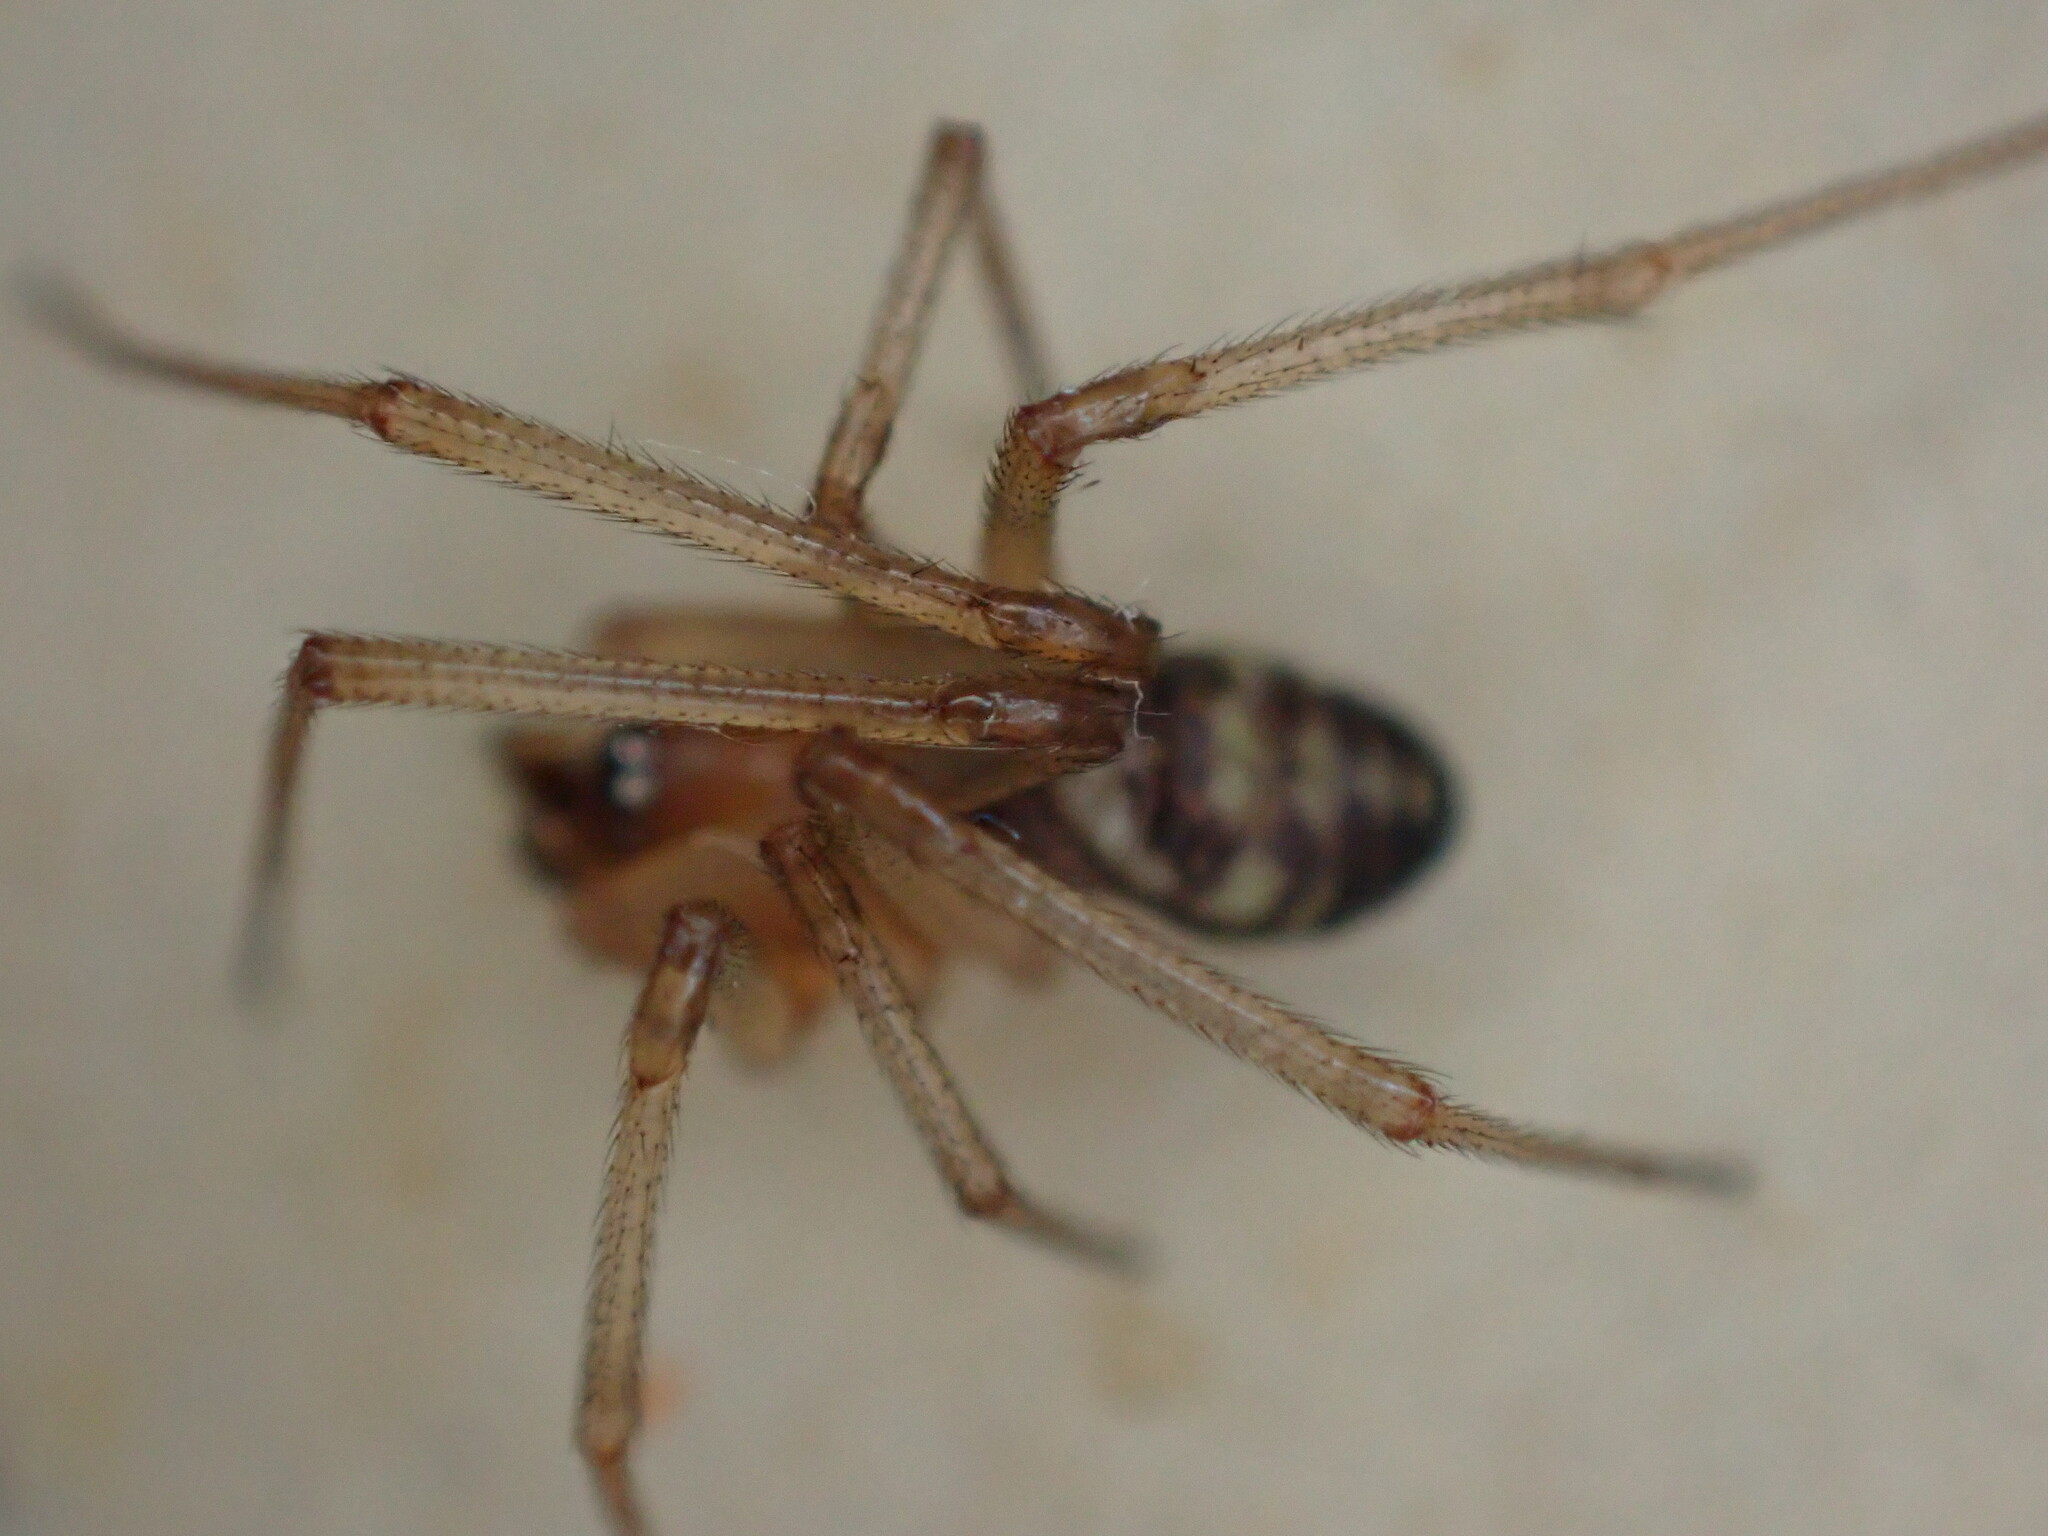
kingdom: Animalia
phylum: Arthropoda
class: Arachnida
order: Araneae
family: Theridiidae
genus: Steatoda
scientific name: Steatoda grossa
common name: False black widow
